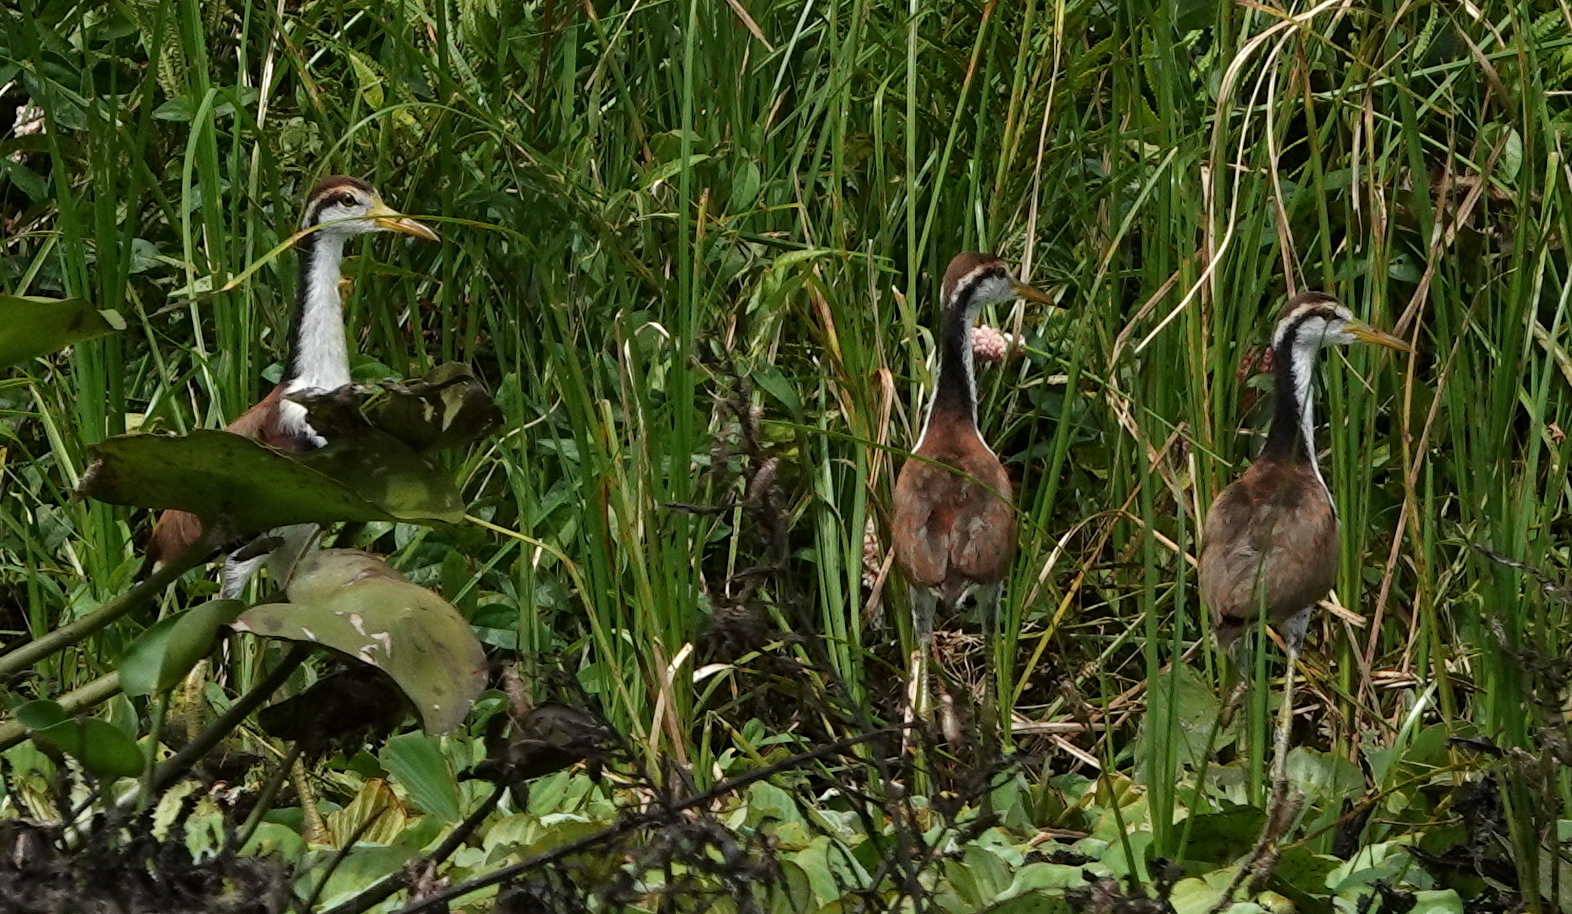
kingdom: Animalia
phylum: Chordata
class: Aves
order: Charadriiformes
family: Jacanidae
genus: Jacana
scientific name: Jacana jacana
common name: Wattled jacana
